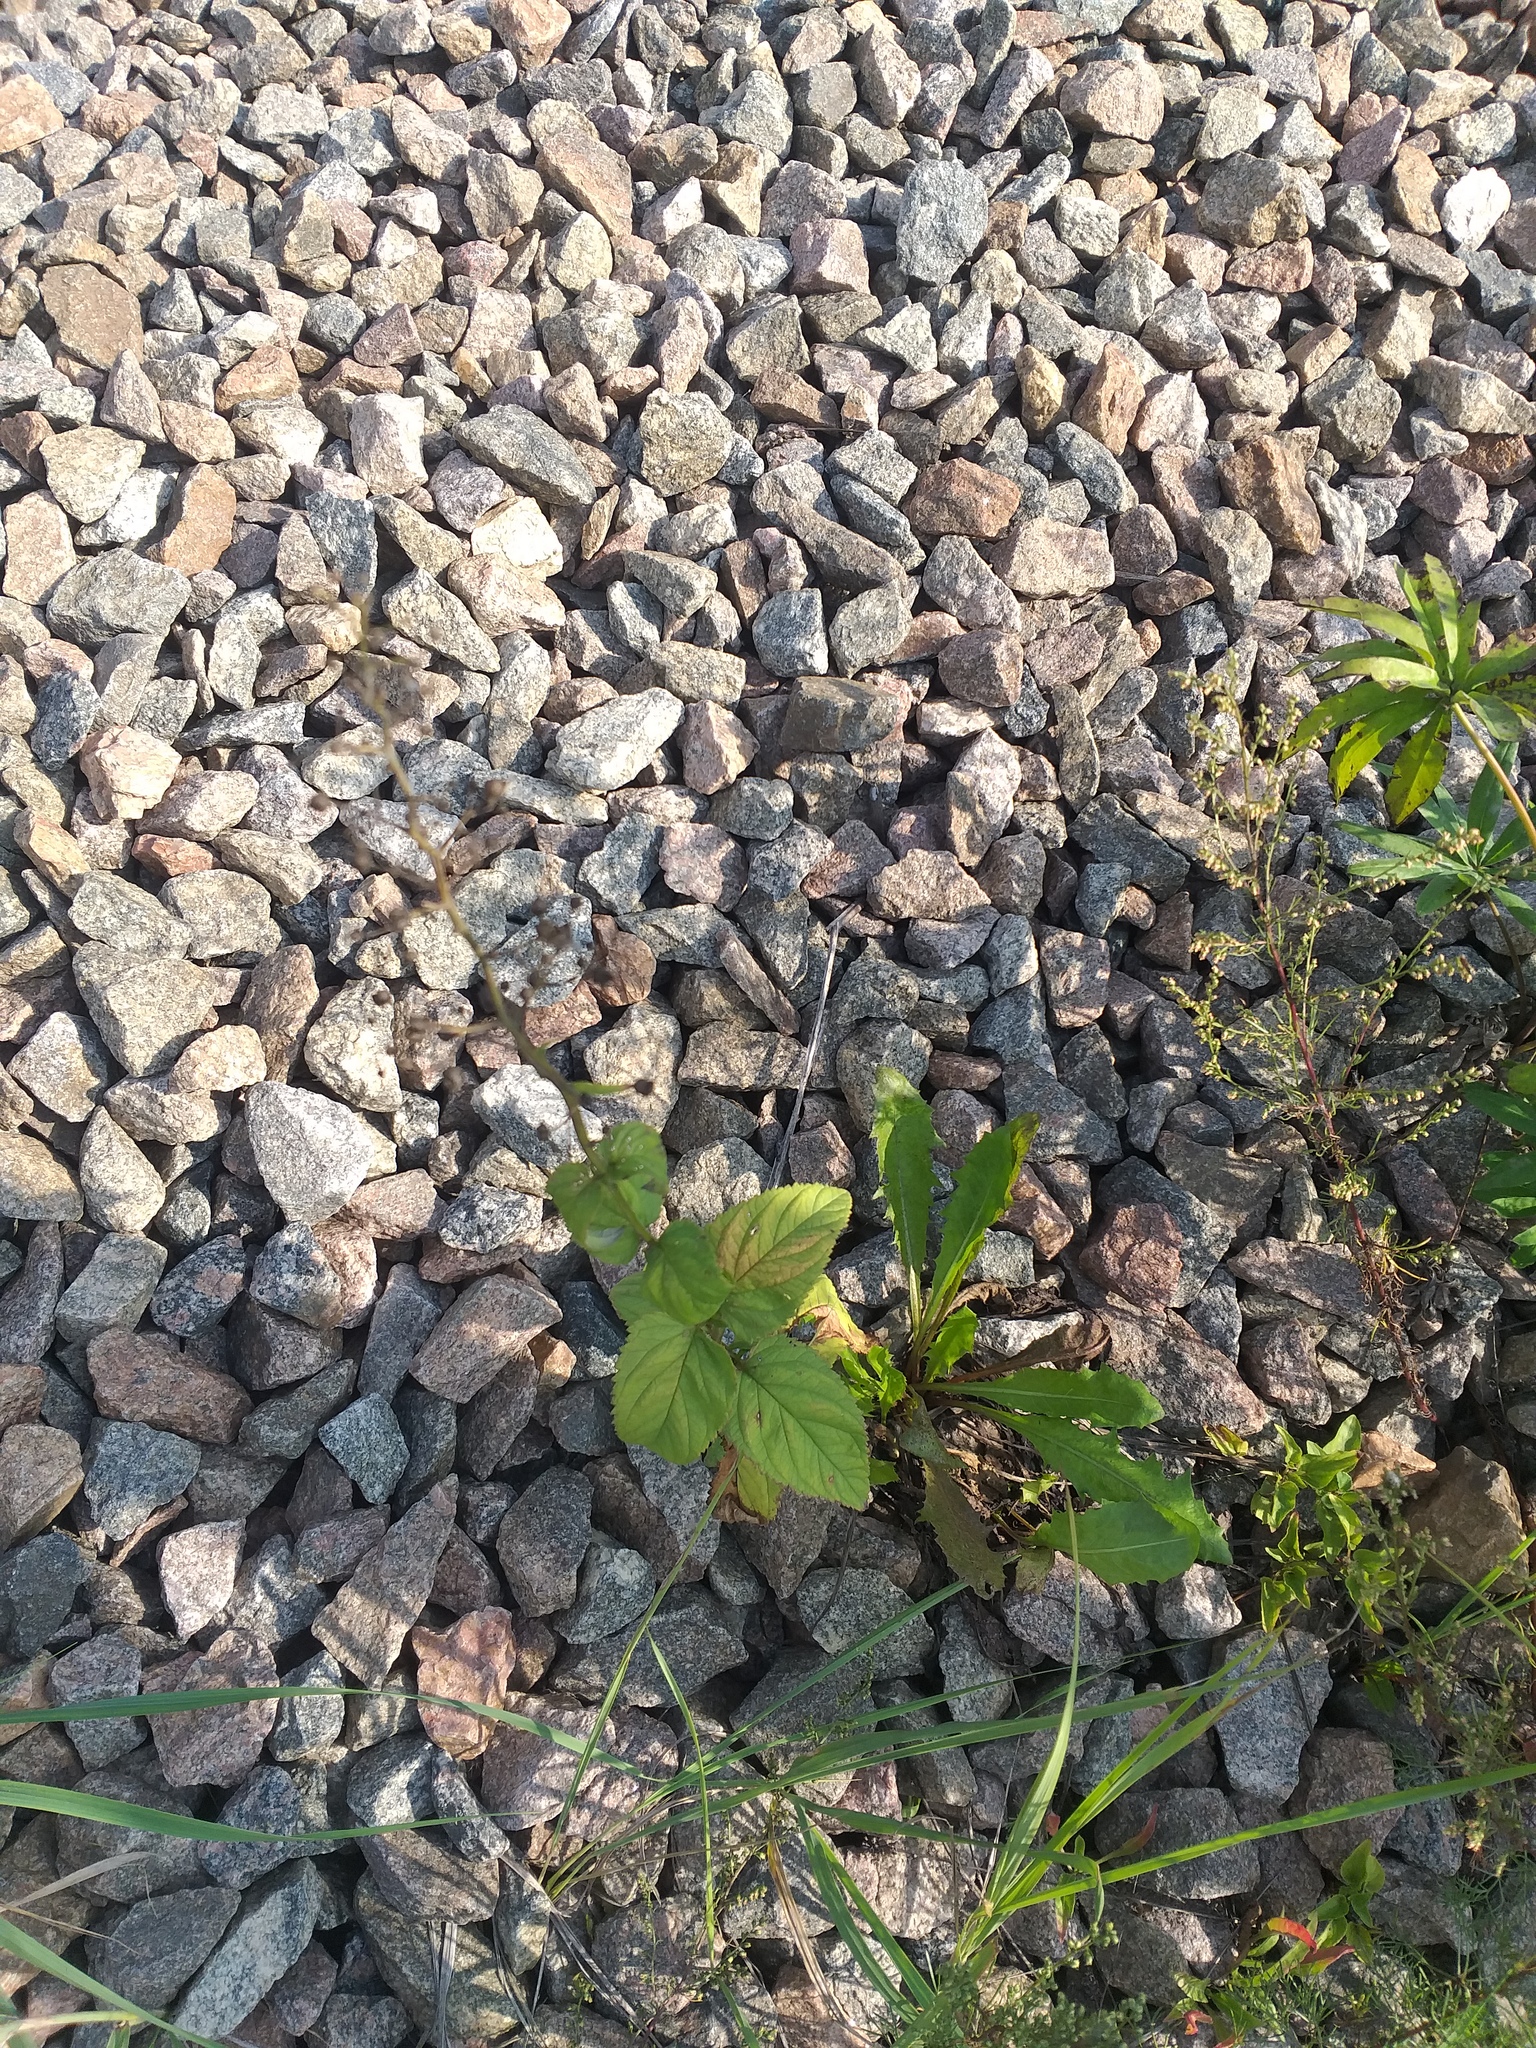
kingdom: Plantae
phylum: Tracheophyta
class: Magnoliopsida
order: Lamiales
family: Scrophulariaceae
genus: Scrophularia
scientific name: Scrophularia nodosa
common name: Common figwort
